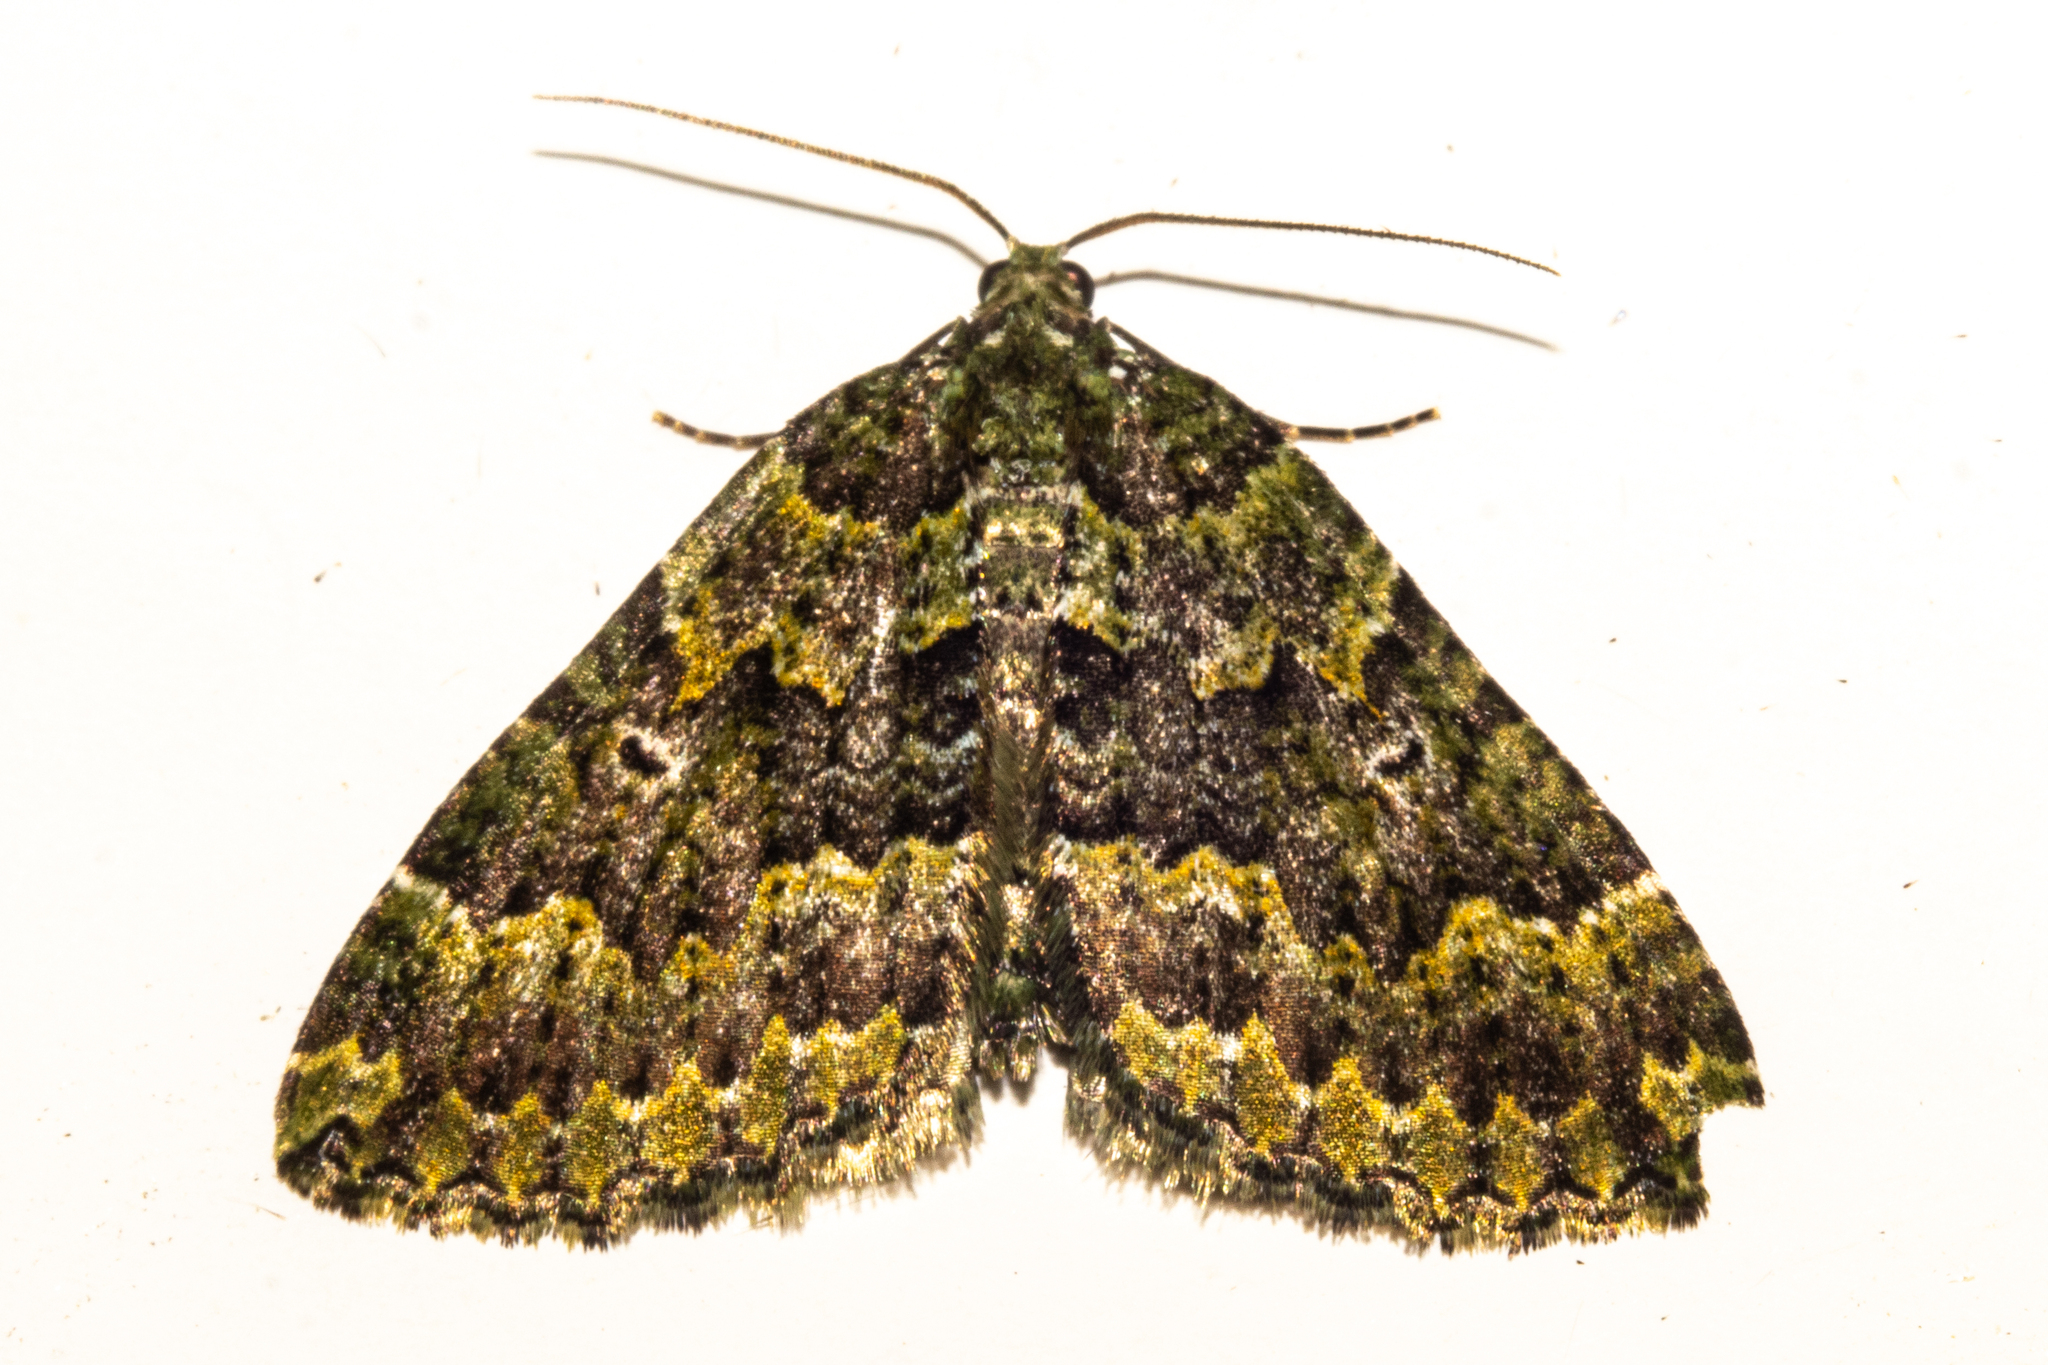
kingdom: Animalia
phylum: Arthropoda
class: Insecta
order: Lepidoptera
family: Geometridae
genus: Austrocidaria
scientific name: Austrocidaria callichlora
